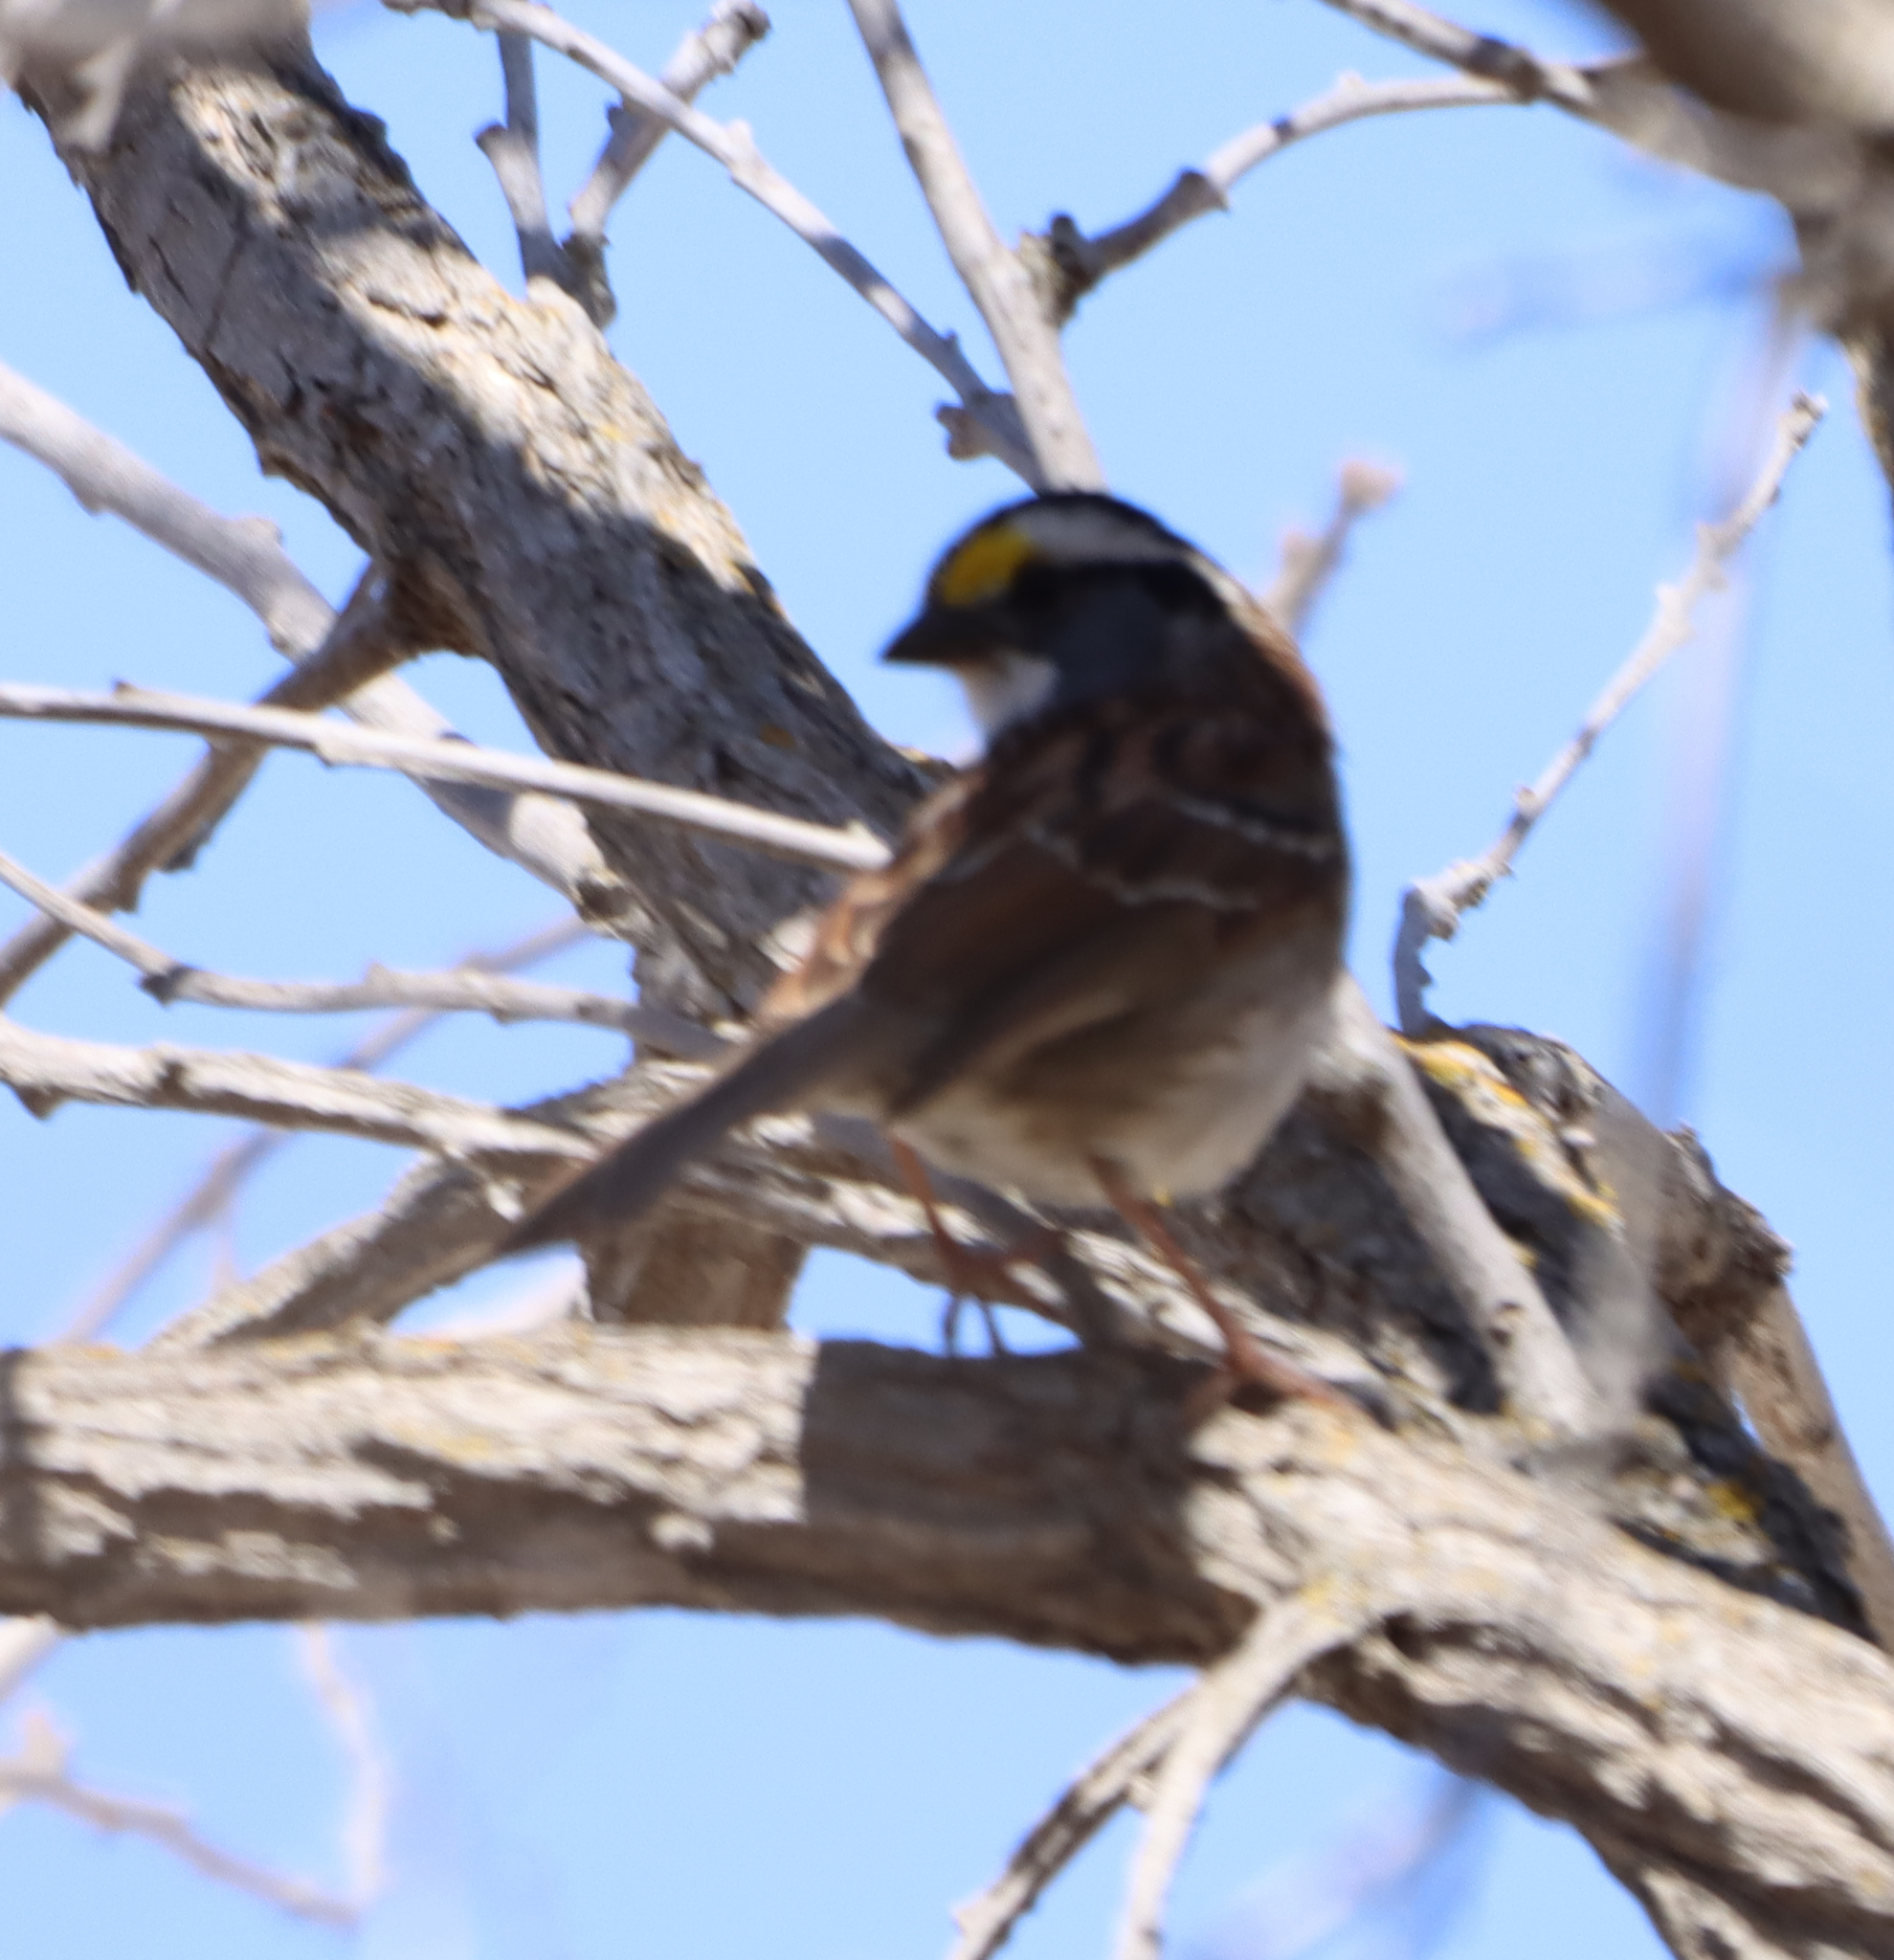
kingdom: Animalia
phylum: Chordata
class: Aves
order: Passeriformes
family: Passerellidae
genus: Zonotrichia
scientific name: Zonotrichia albicollis
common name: White-throated sparrow
